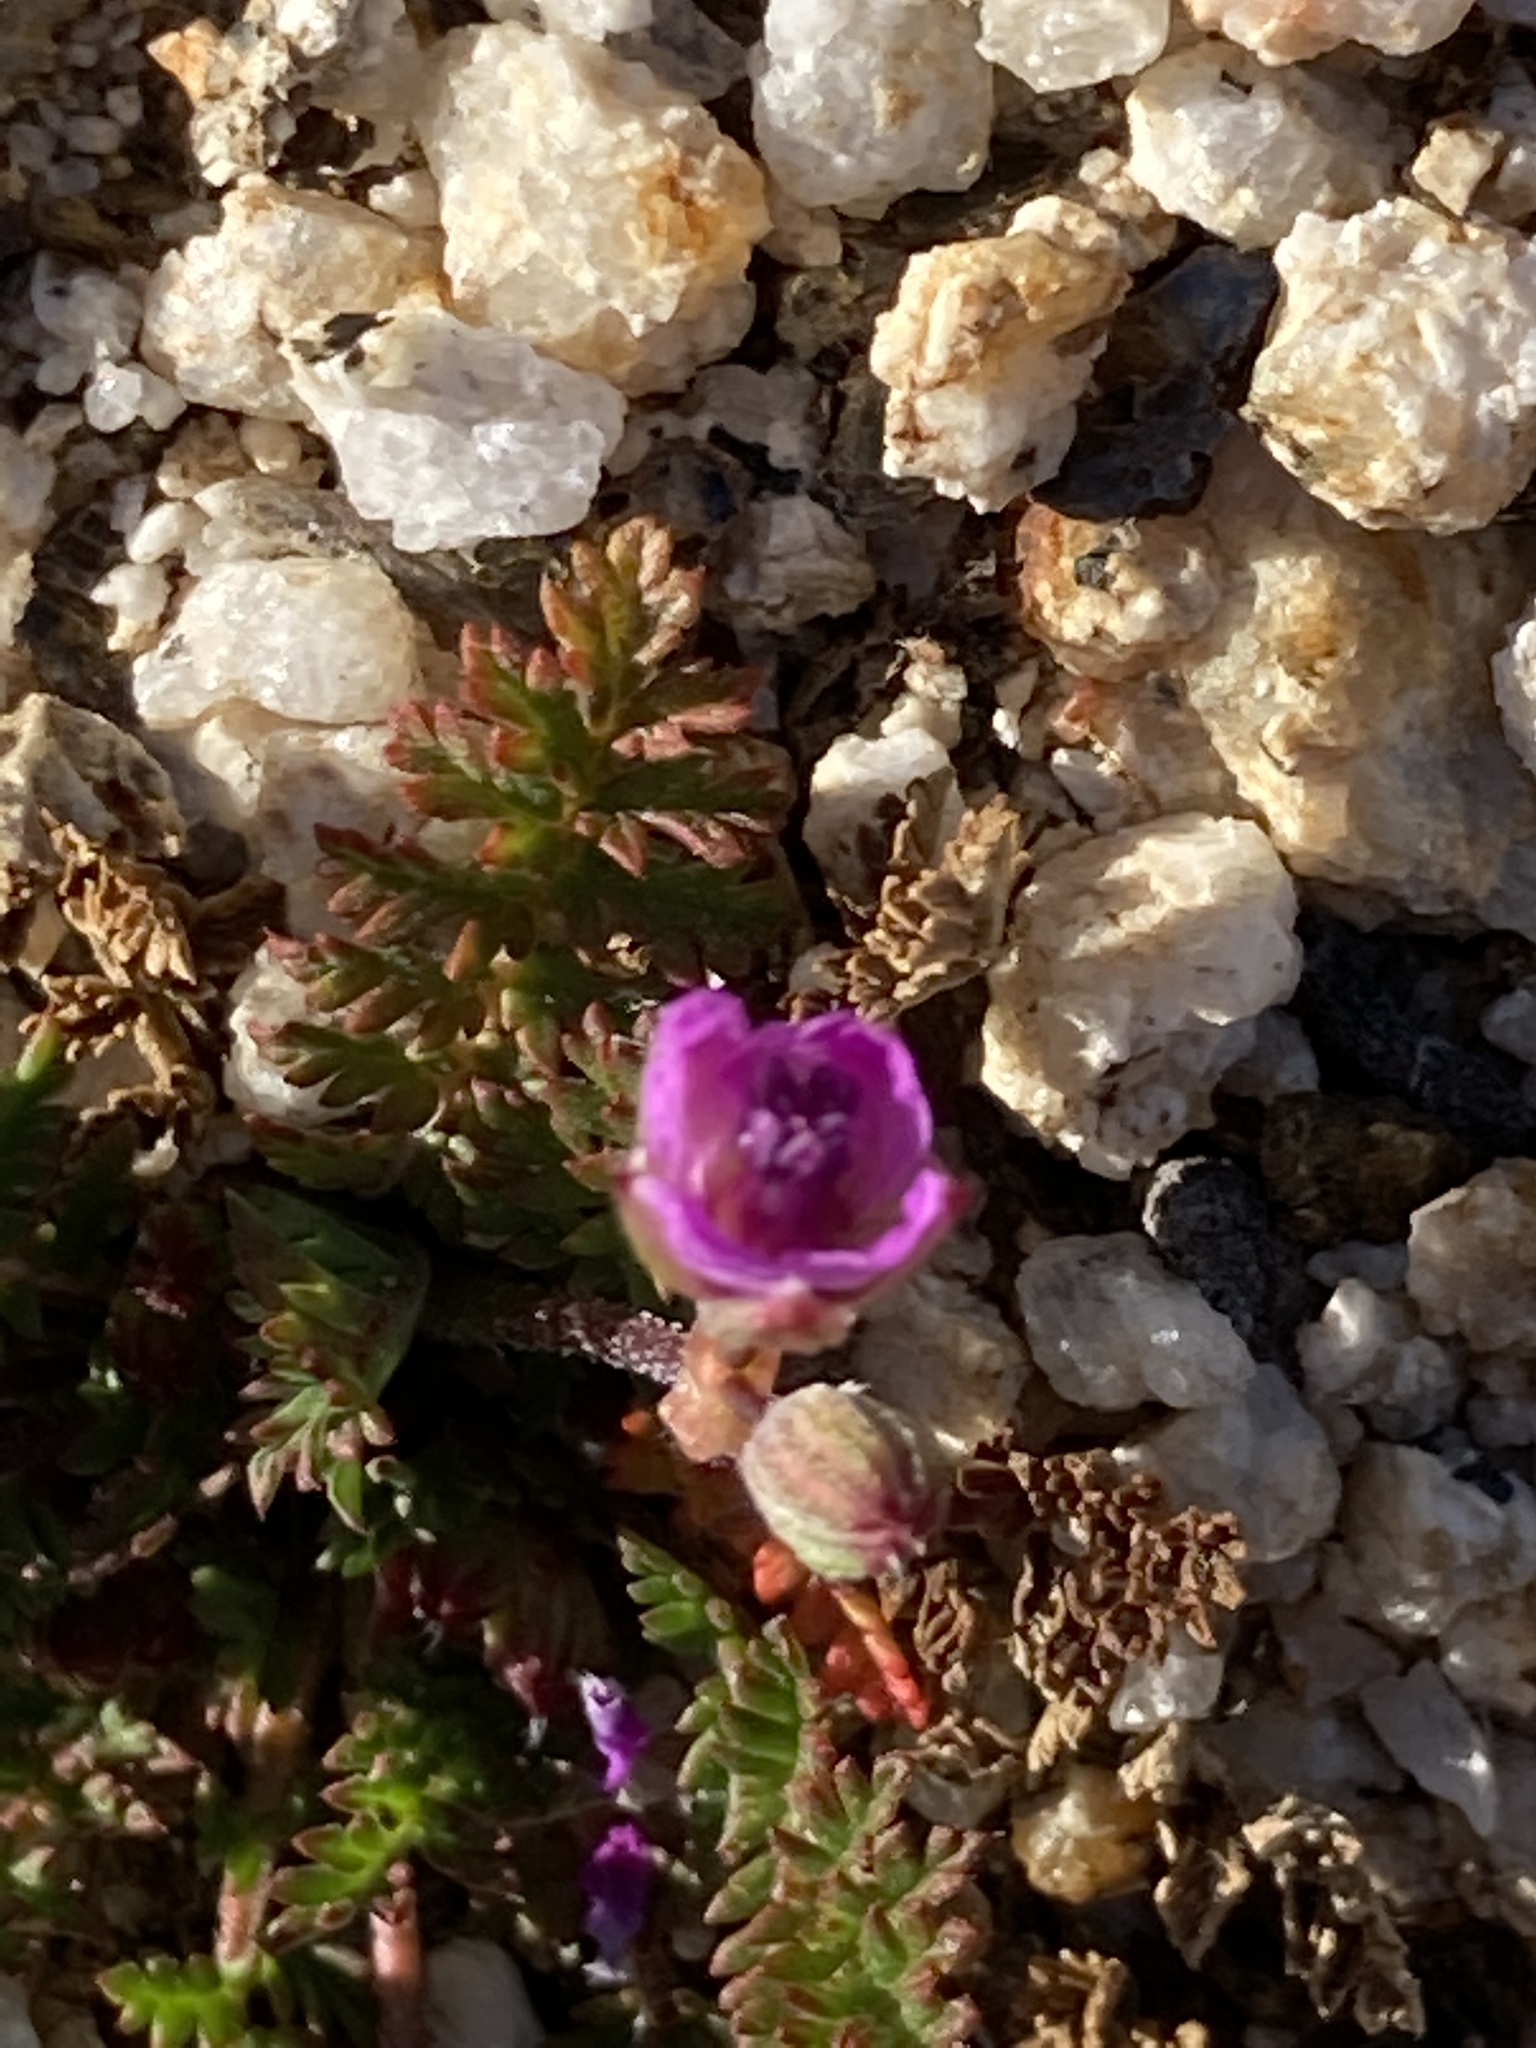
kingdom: Plantae
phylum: Tracheophyta
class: Magnoliopsida
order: Geraniales
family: Geraniaceae
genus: Erodium
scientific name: Erodium cicutarium
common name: Common stork's-bill
